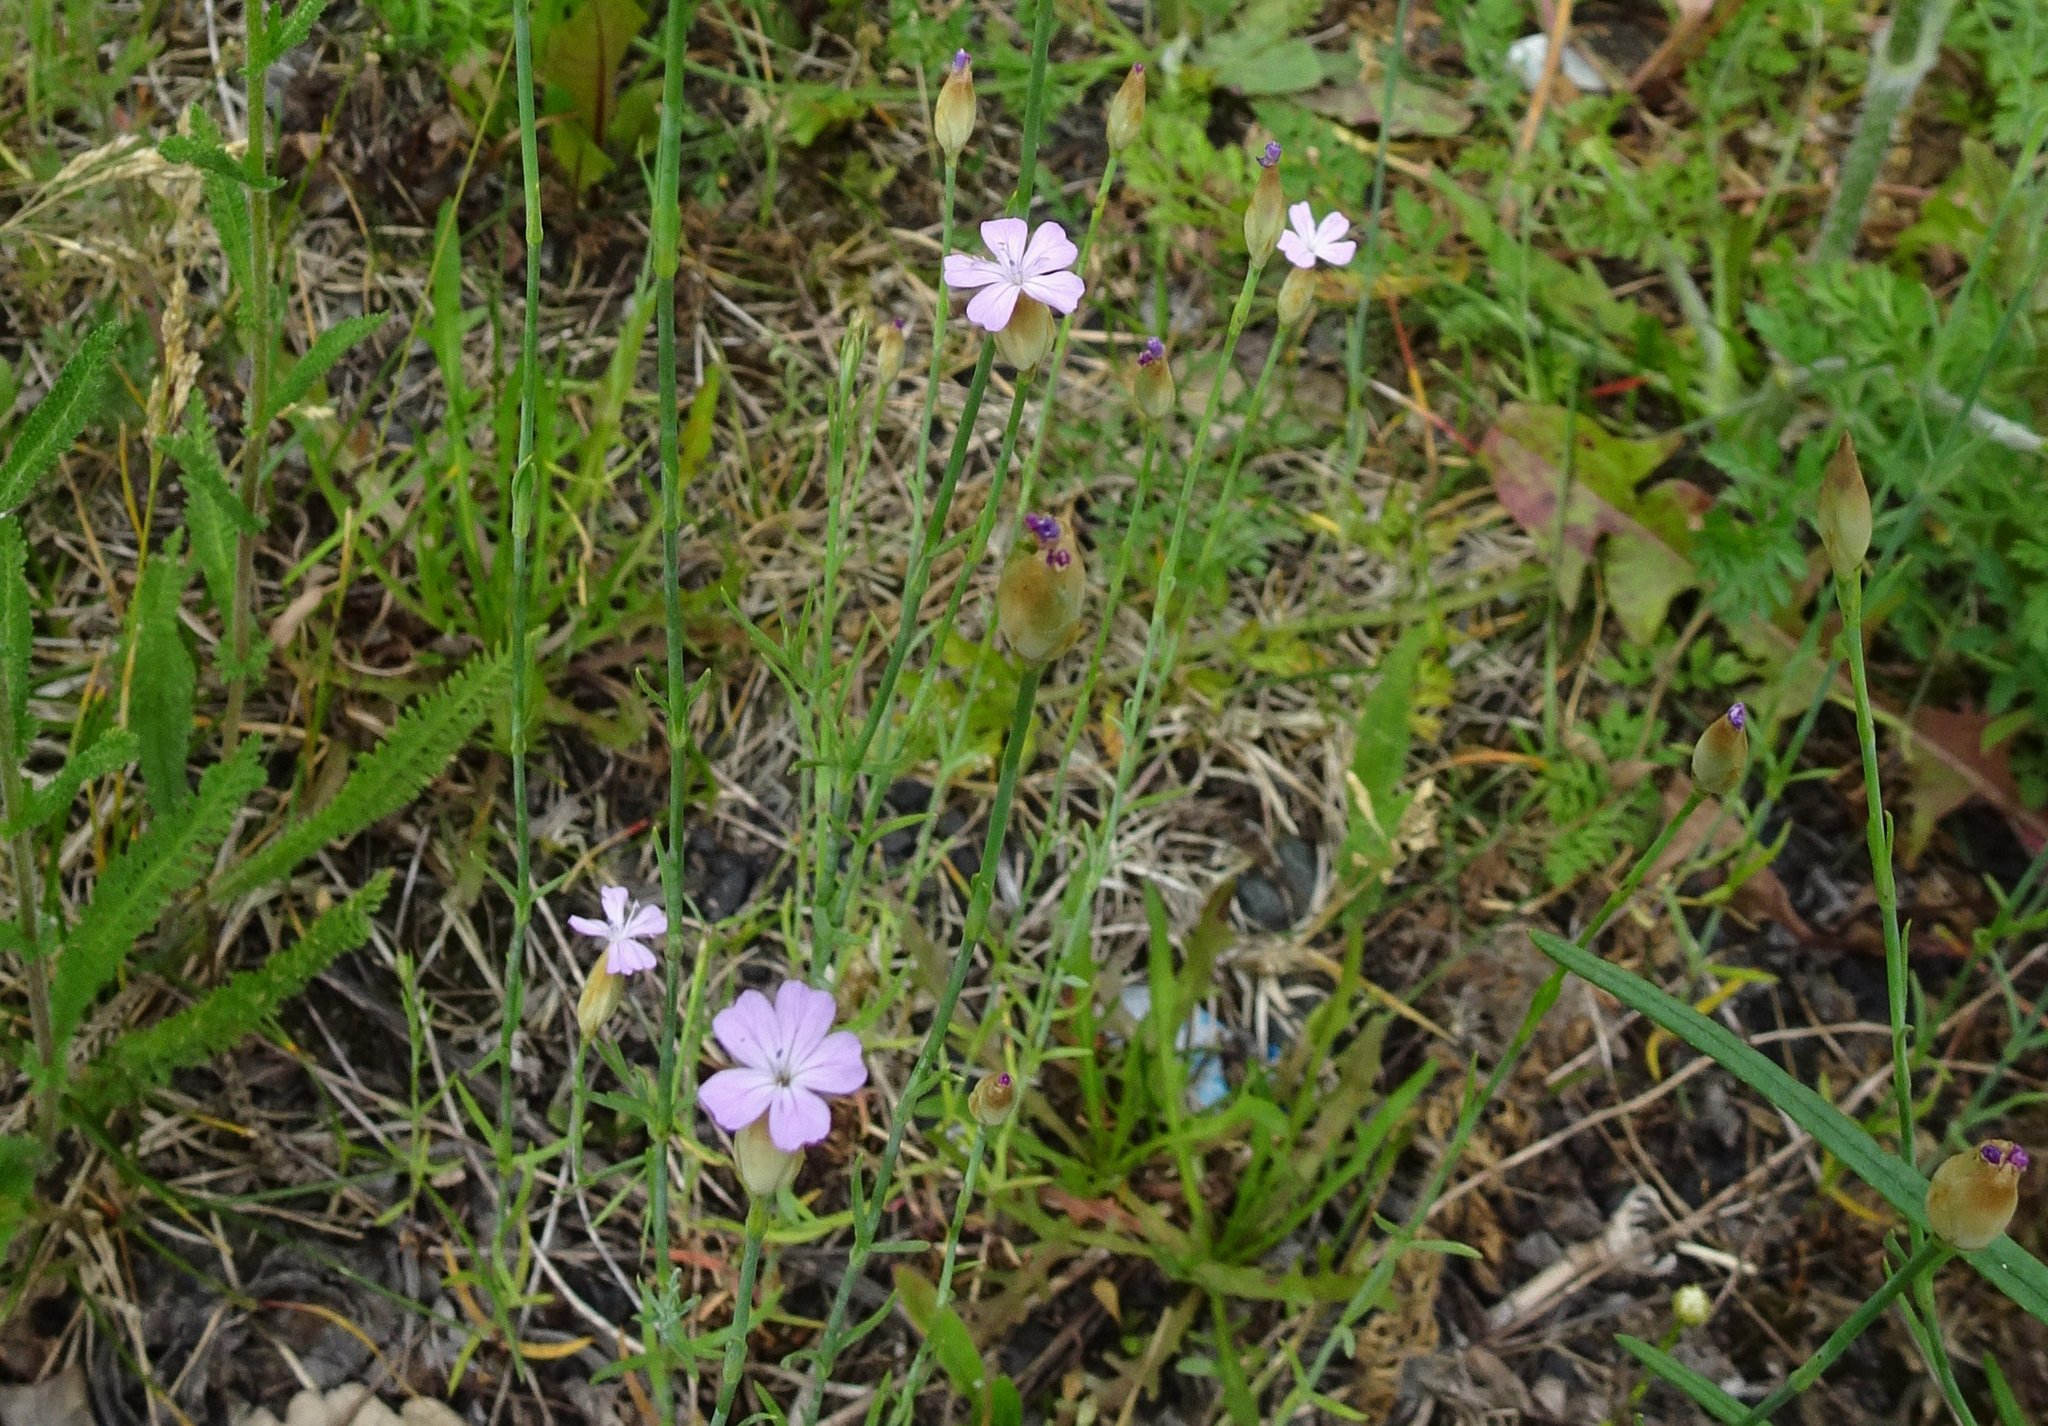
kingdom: Plantae
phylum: Tracheophyta
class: Magnoliopsida
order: Caryophyllales
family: Caryophyllaceae
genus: Petrorhagia
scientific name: Petrorhagia prolifera
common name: Proliferous pink
